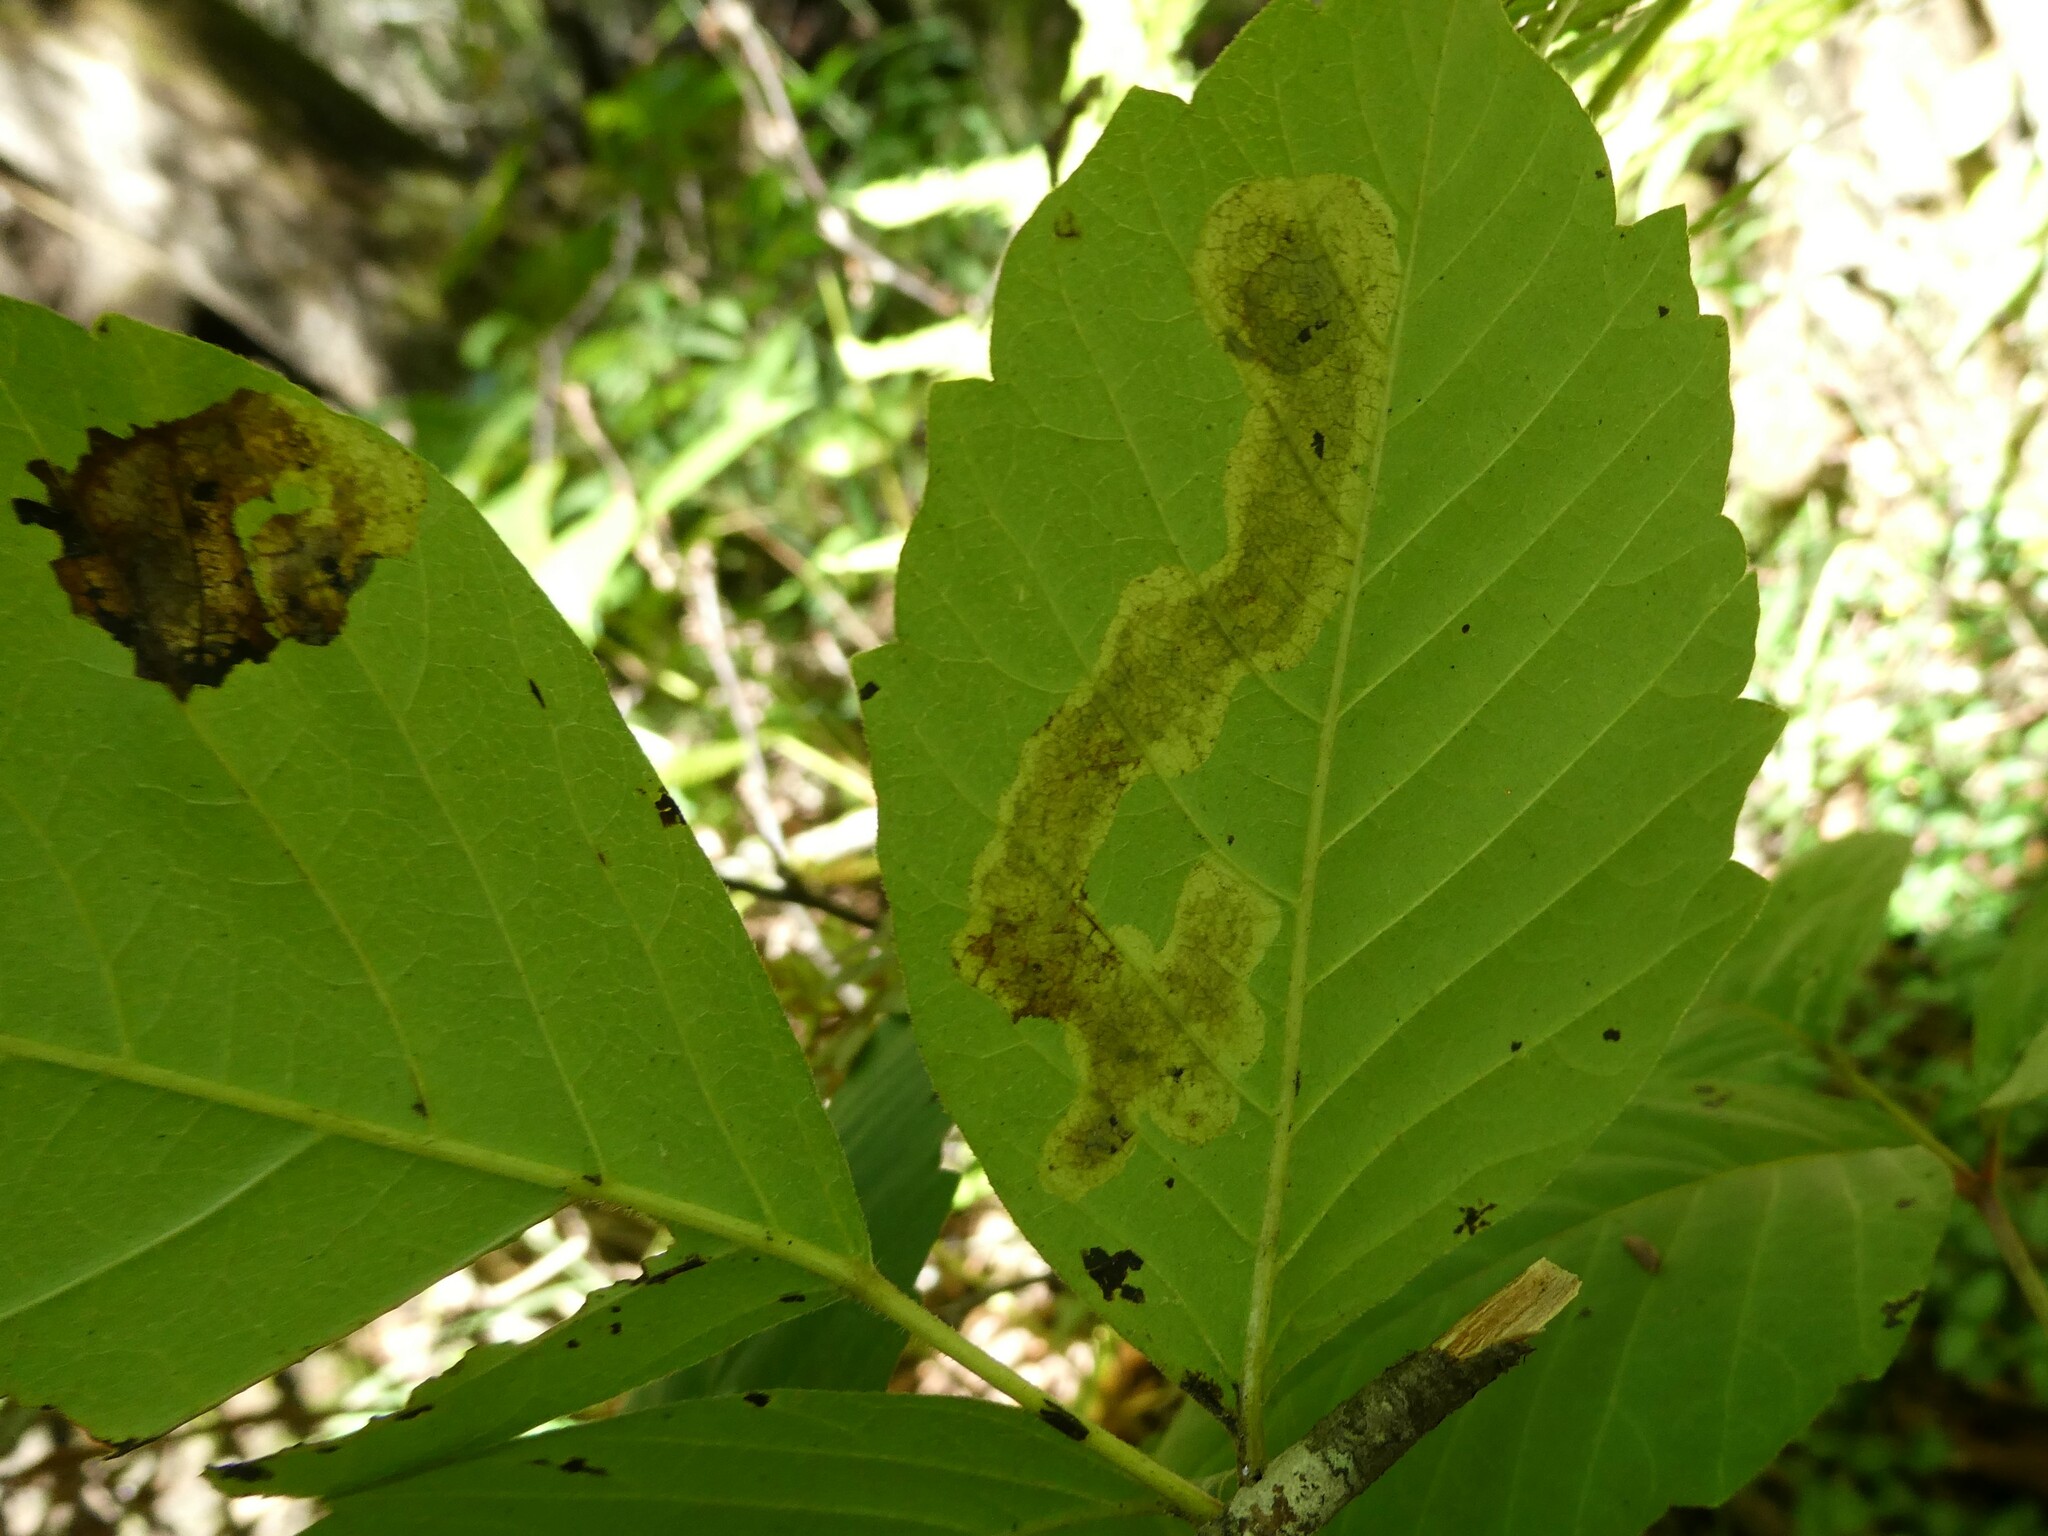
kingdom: Animalia
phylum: Arthropoda
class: Insecta
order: Lepidoptera
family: Gracillariidae
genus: Cameraria
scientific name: Cameraria guttifinitella
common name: Poison ivy leaf-miner moth
